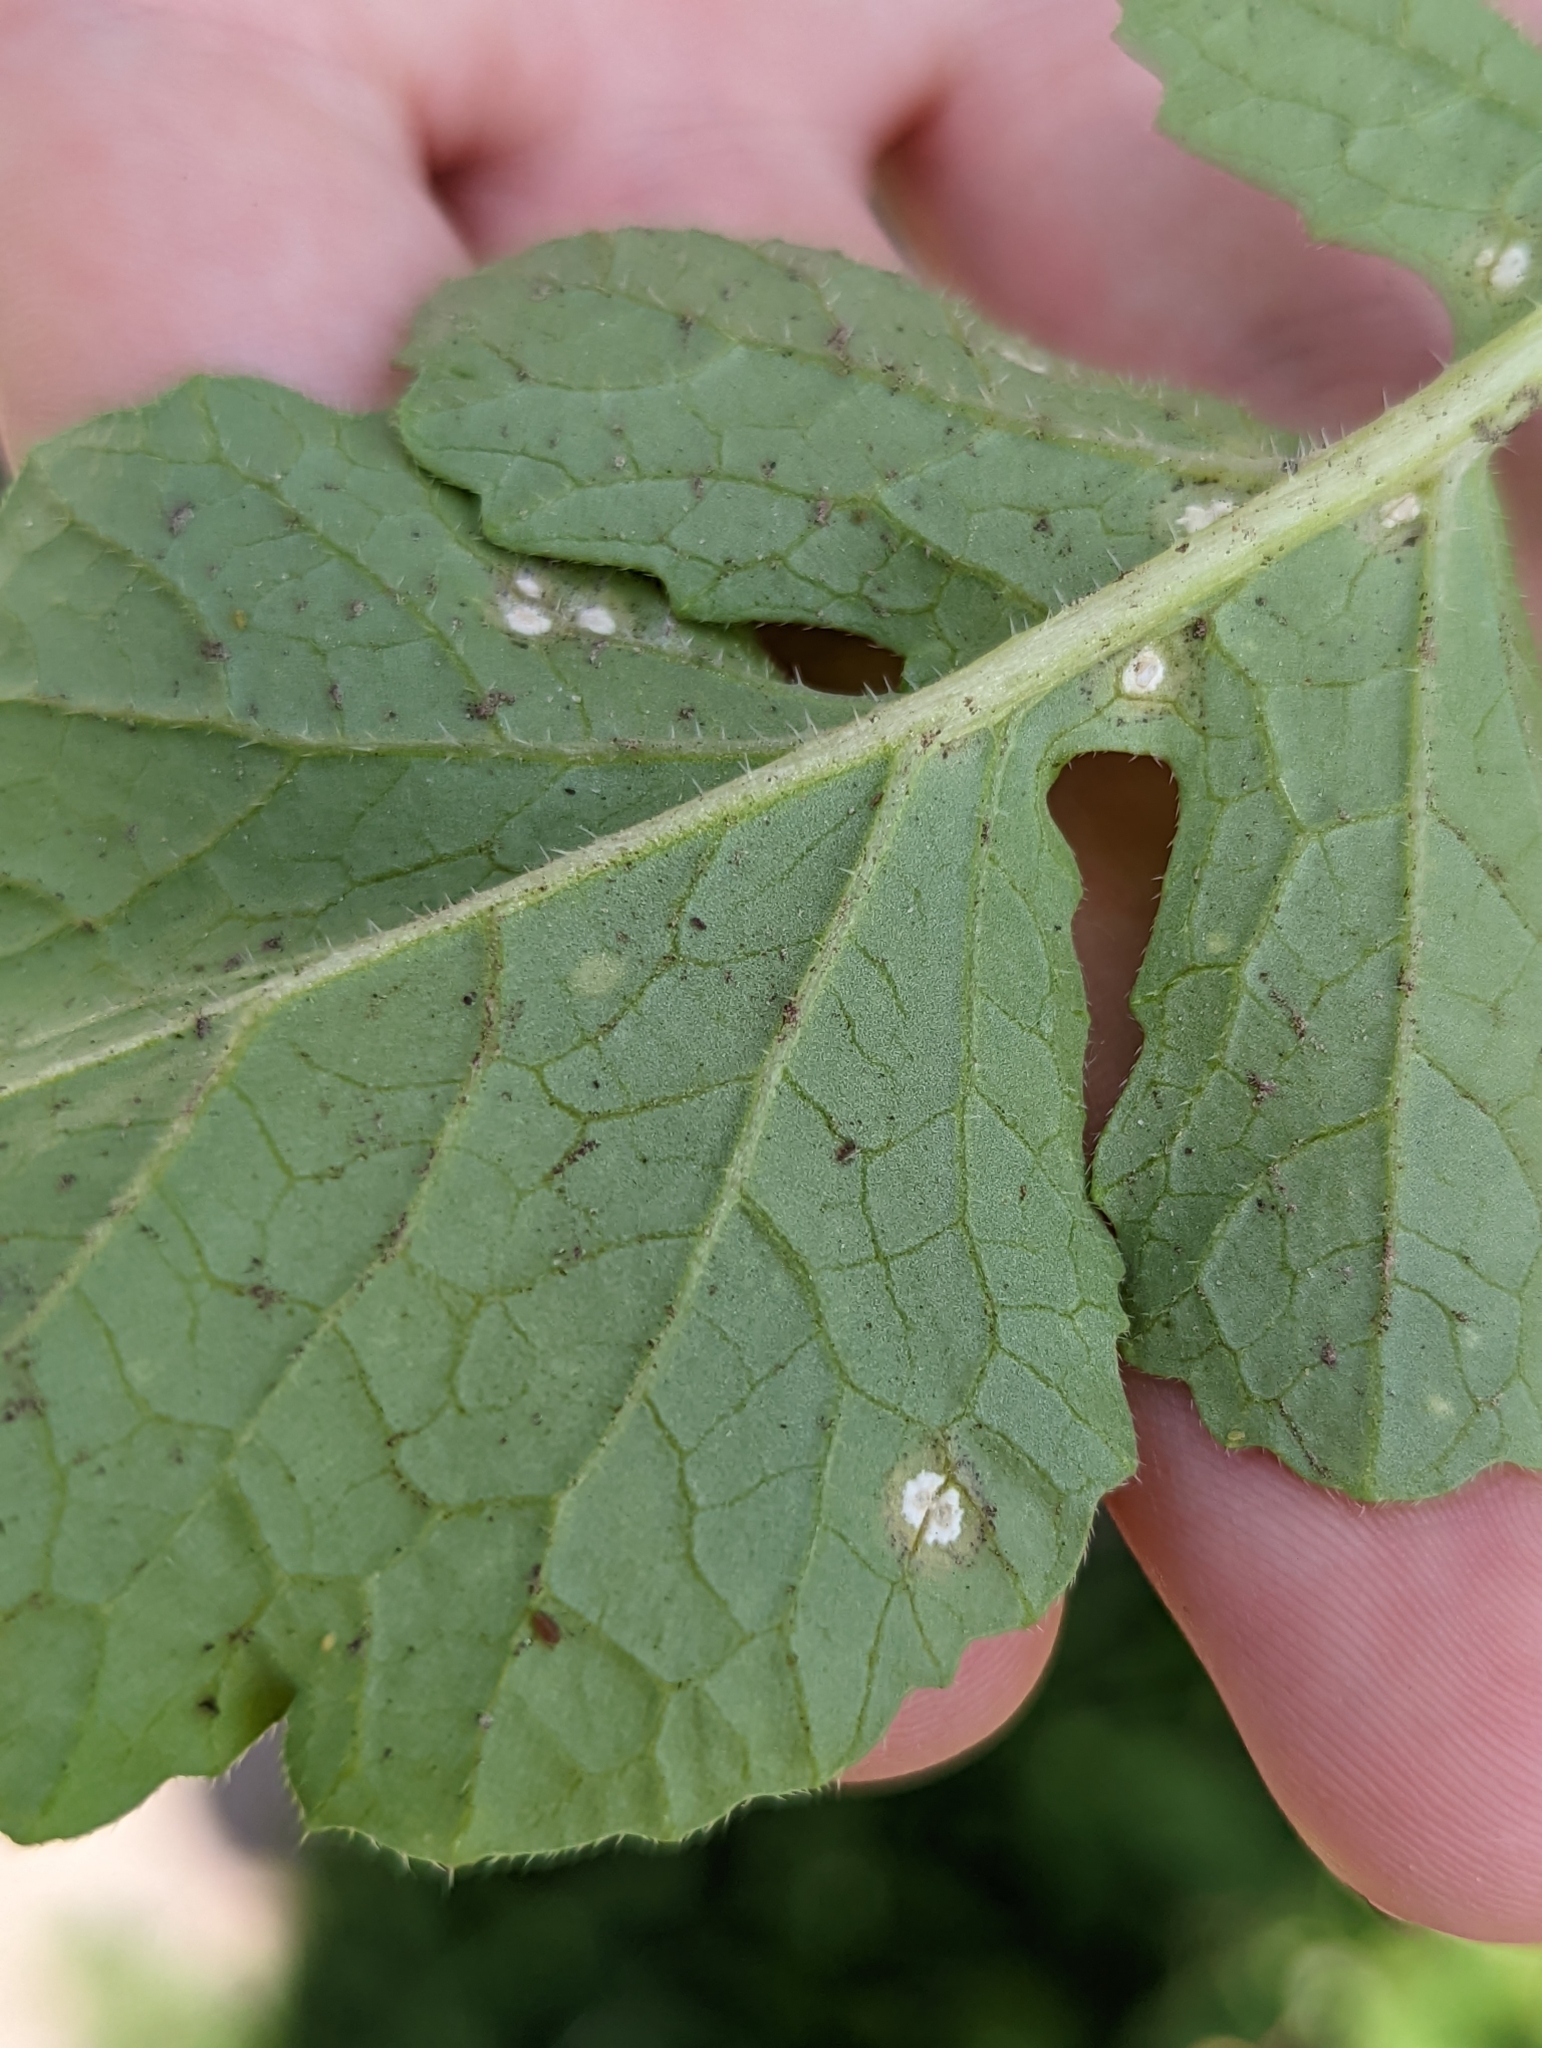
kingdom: Chromista
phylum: Oomycota
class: Peronosporea
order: Albuginales
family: Albuginaceae
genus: Albugo
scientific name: Albugo candida
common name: Crucifer white blister
